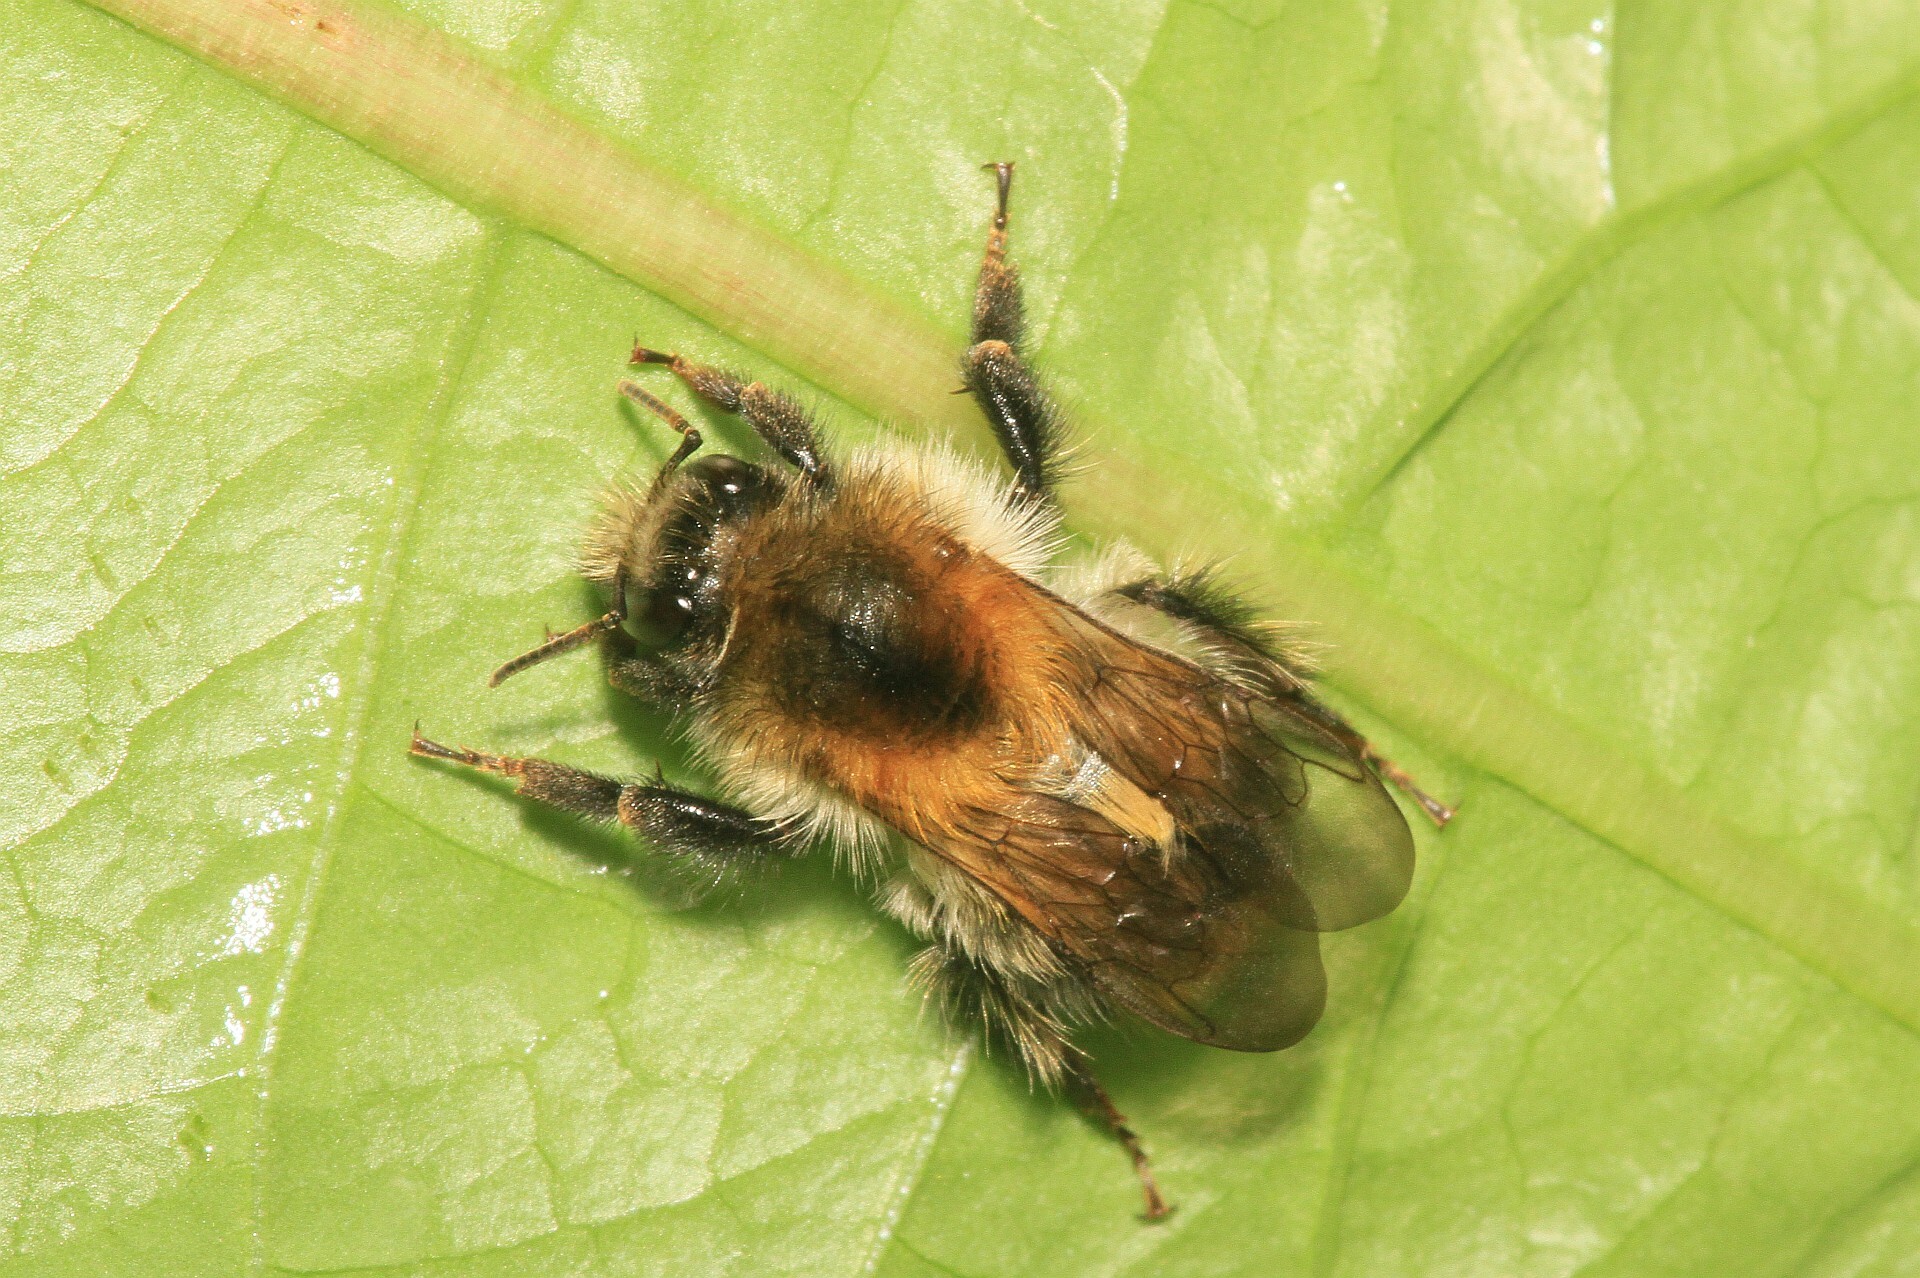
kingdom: Animalia
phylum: Arthropoda
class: Insecta
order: Hymenoptera
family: Apidae
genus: Bombus
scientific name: Bombus pascuorum
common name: Common carder bee
